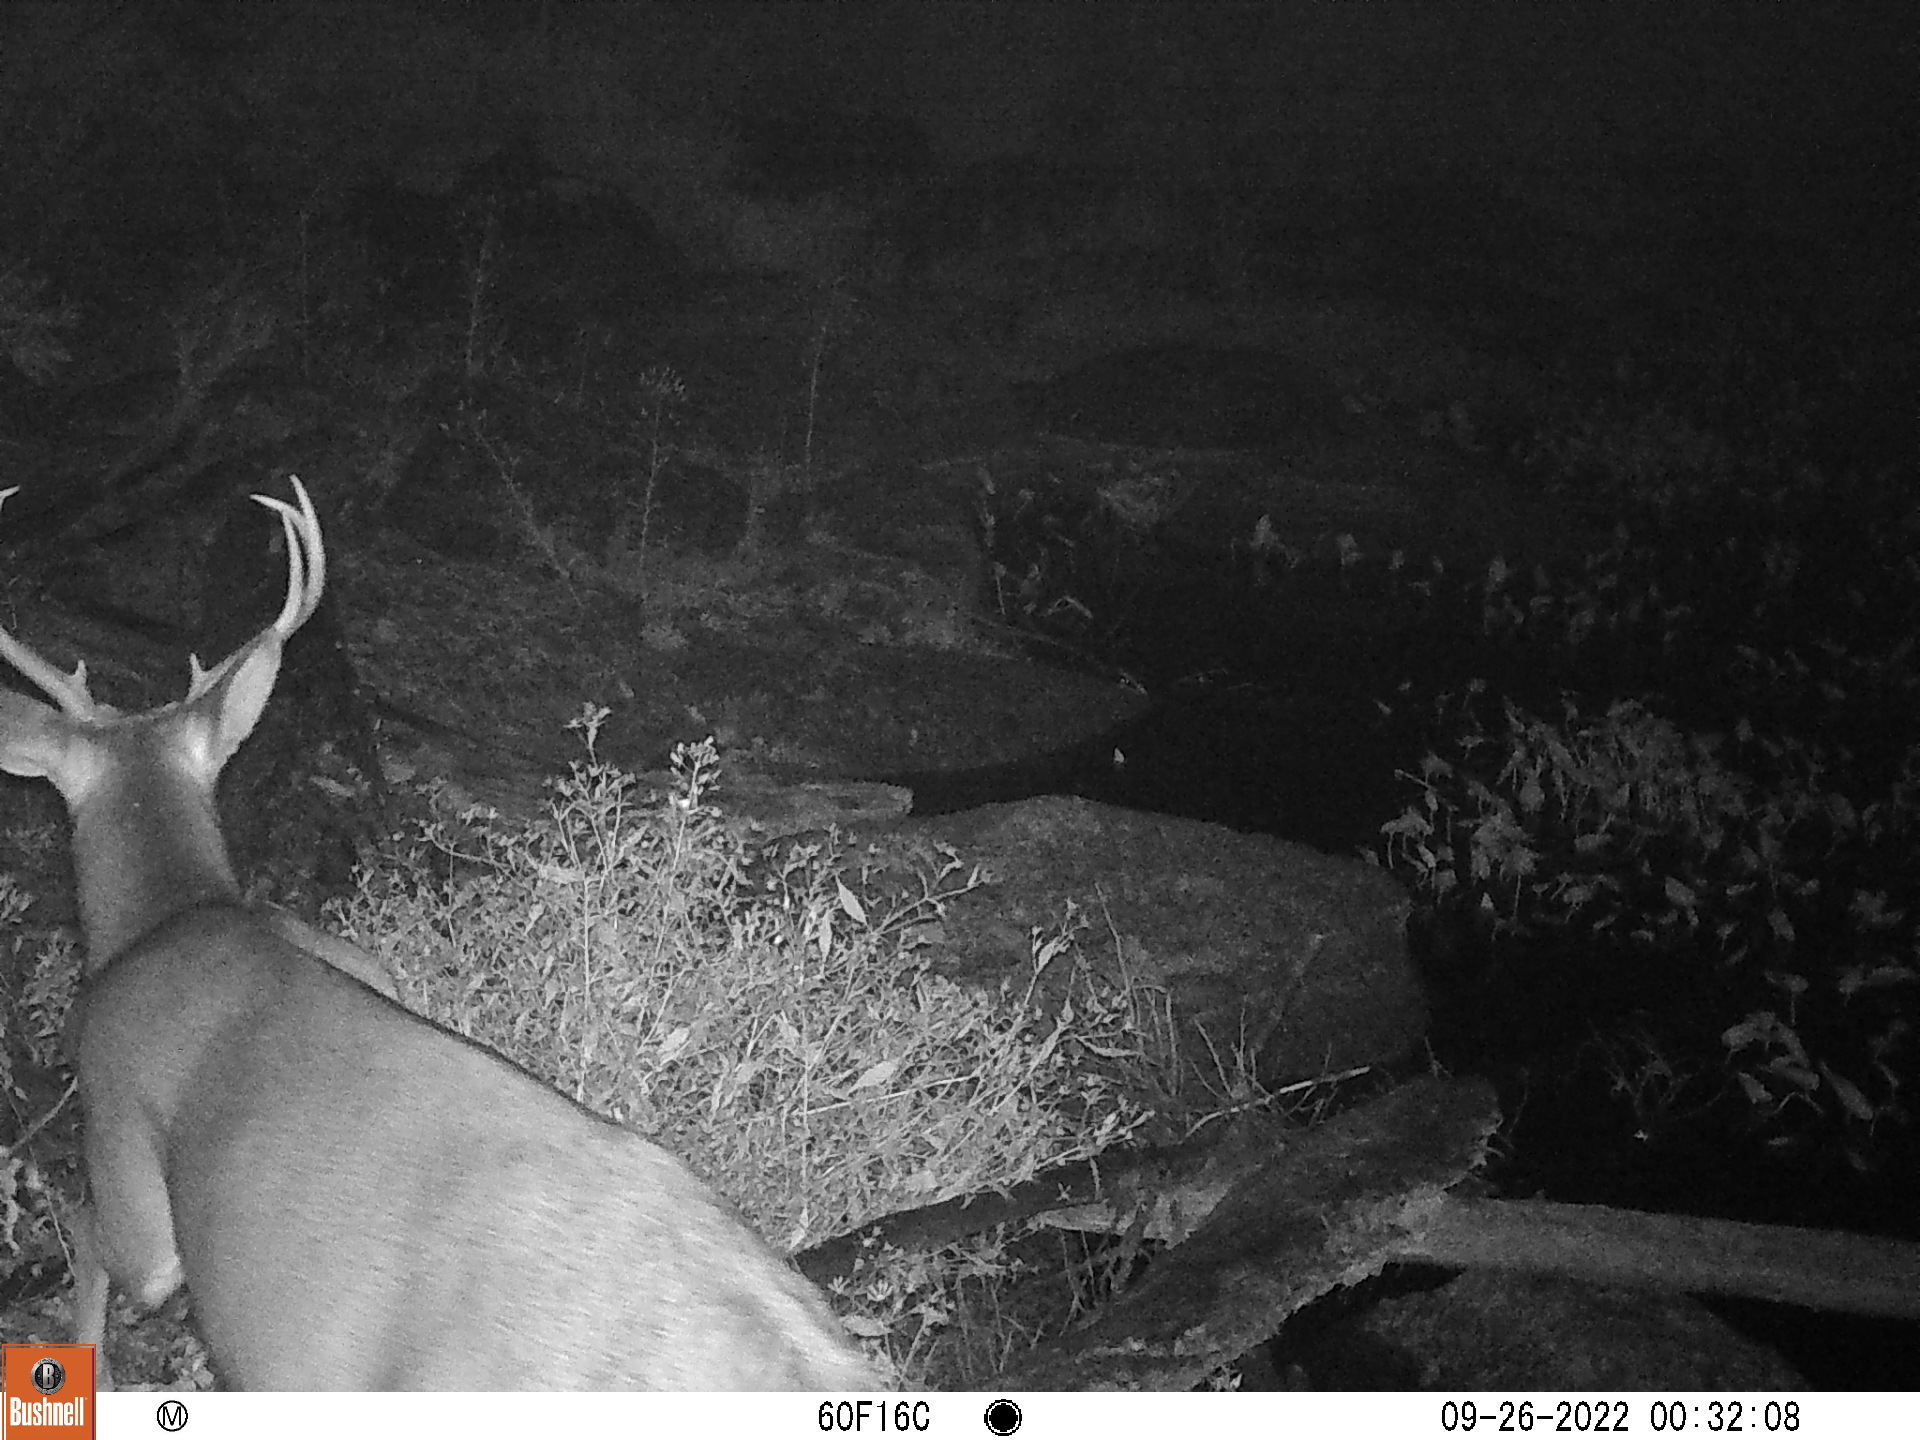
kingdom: Animalia
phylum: Chordata
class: Mammalia
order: Artiodactyla
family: Cervidae
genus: Odocoileus
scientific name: Odocoileus virginianus
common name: White-tailed deer
